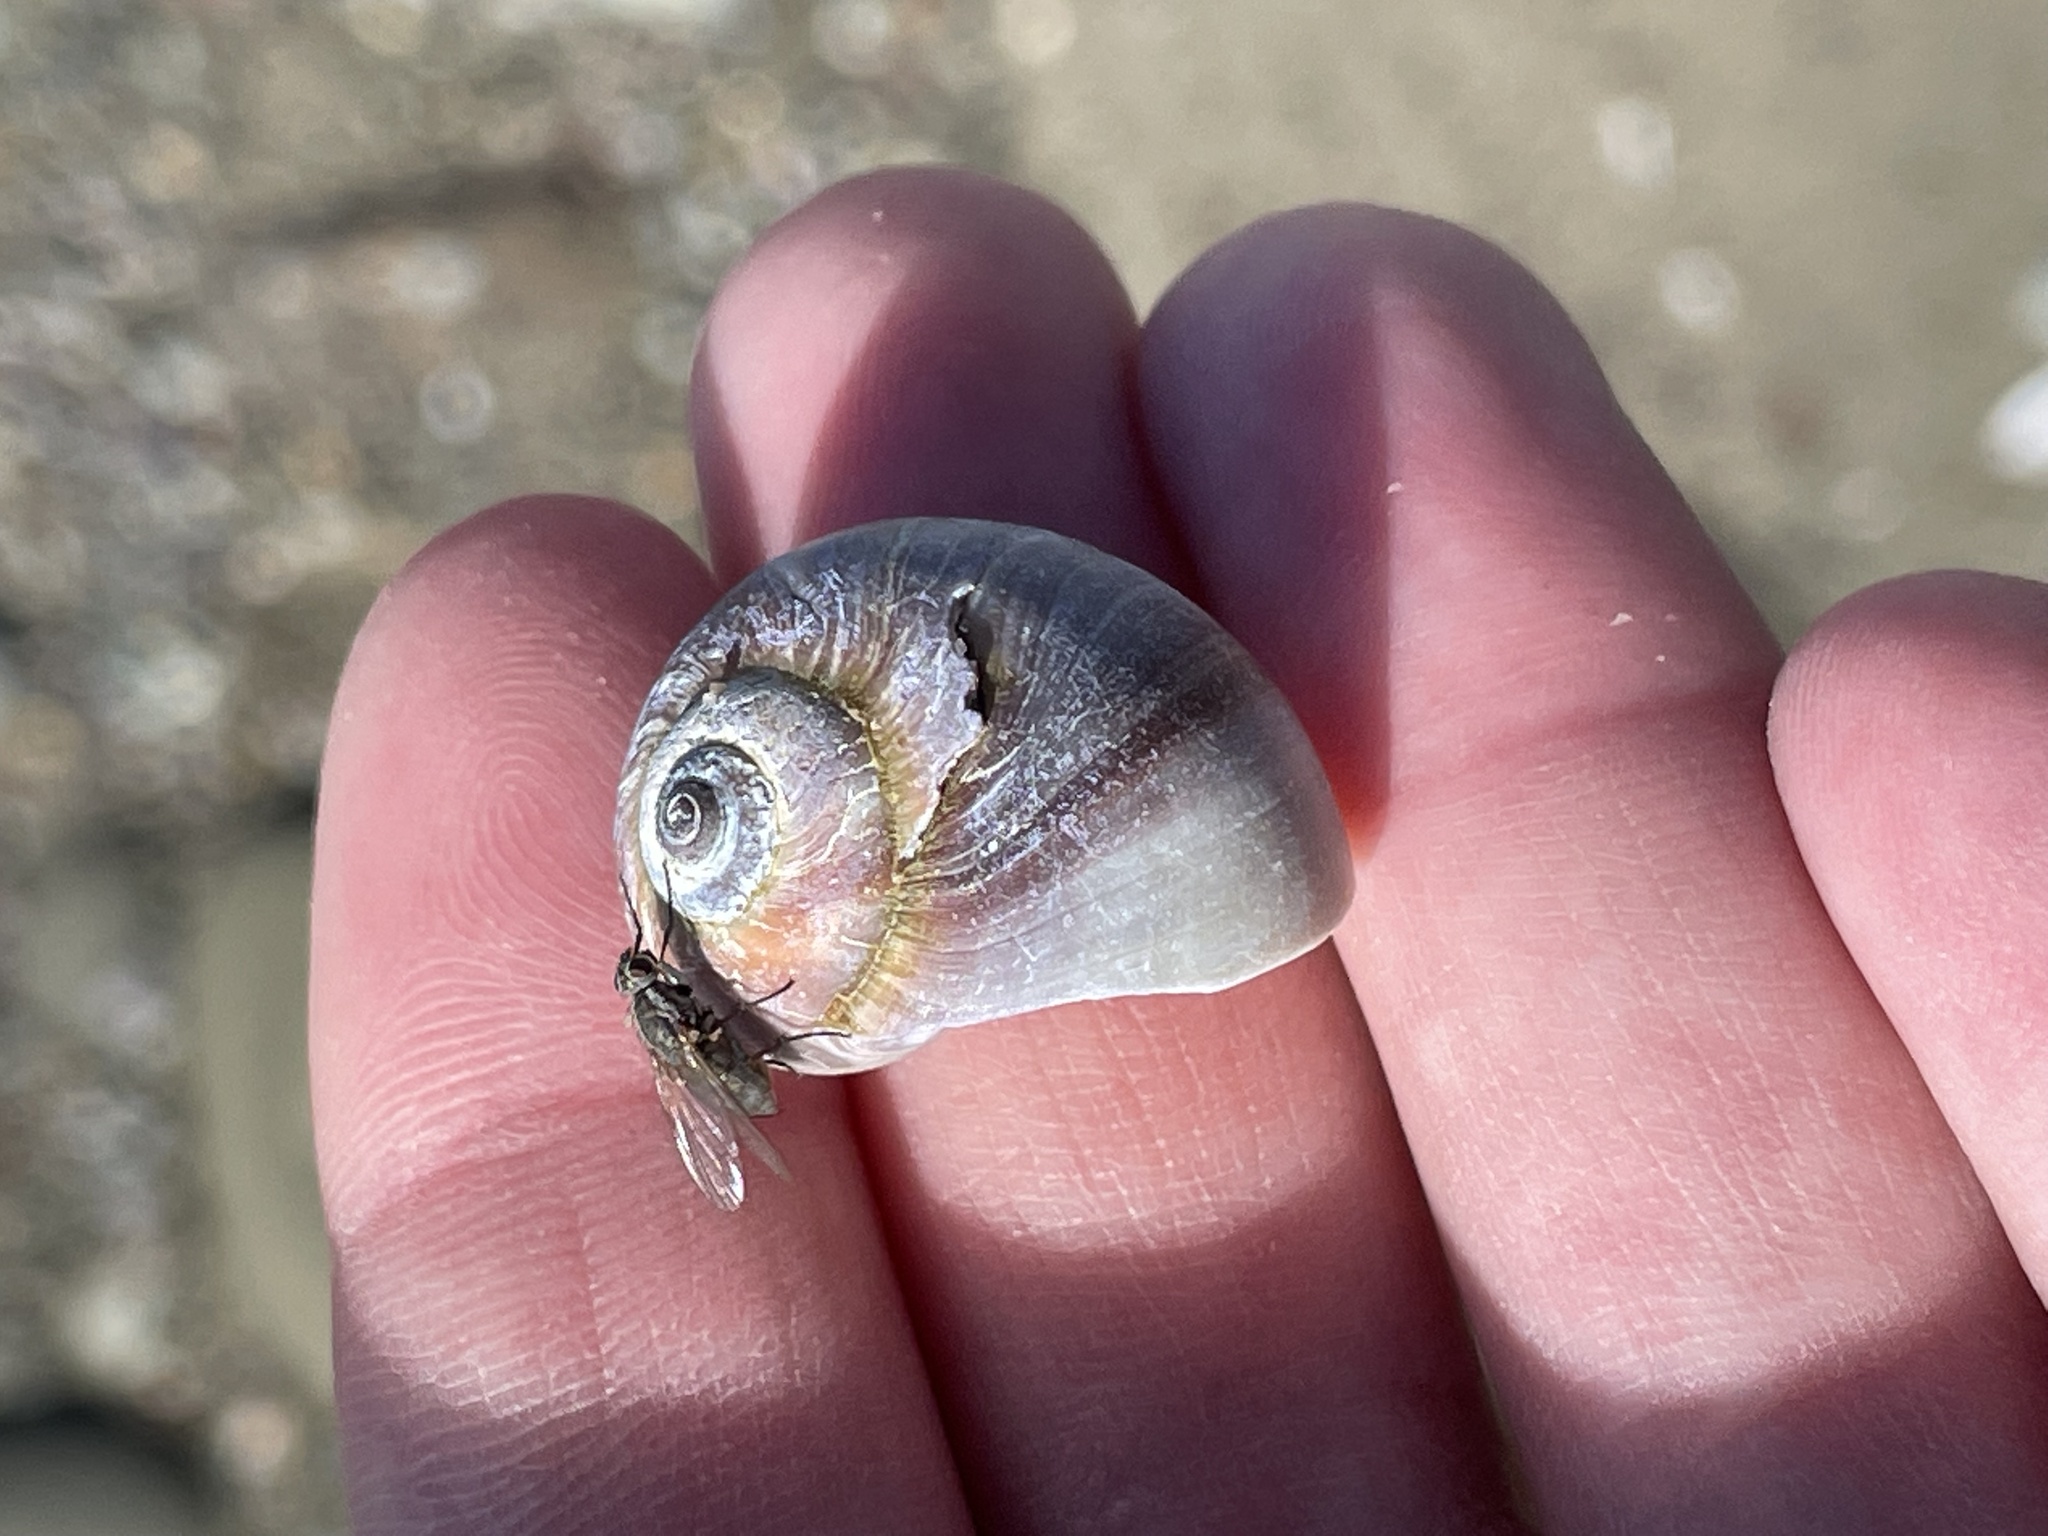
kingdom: Animalia
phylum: Mollusca
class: Gastropoda
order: Littorinimorpha
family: Naticidae
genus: Euspira
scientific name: Euspira heros
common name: Common northern moonsnail
